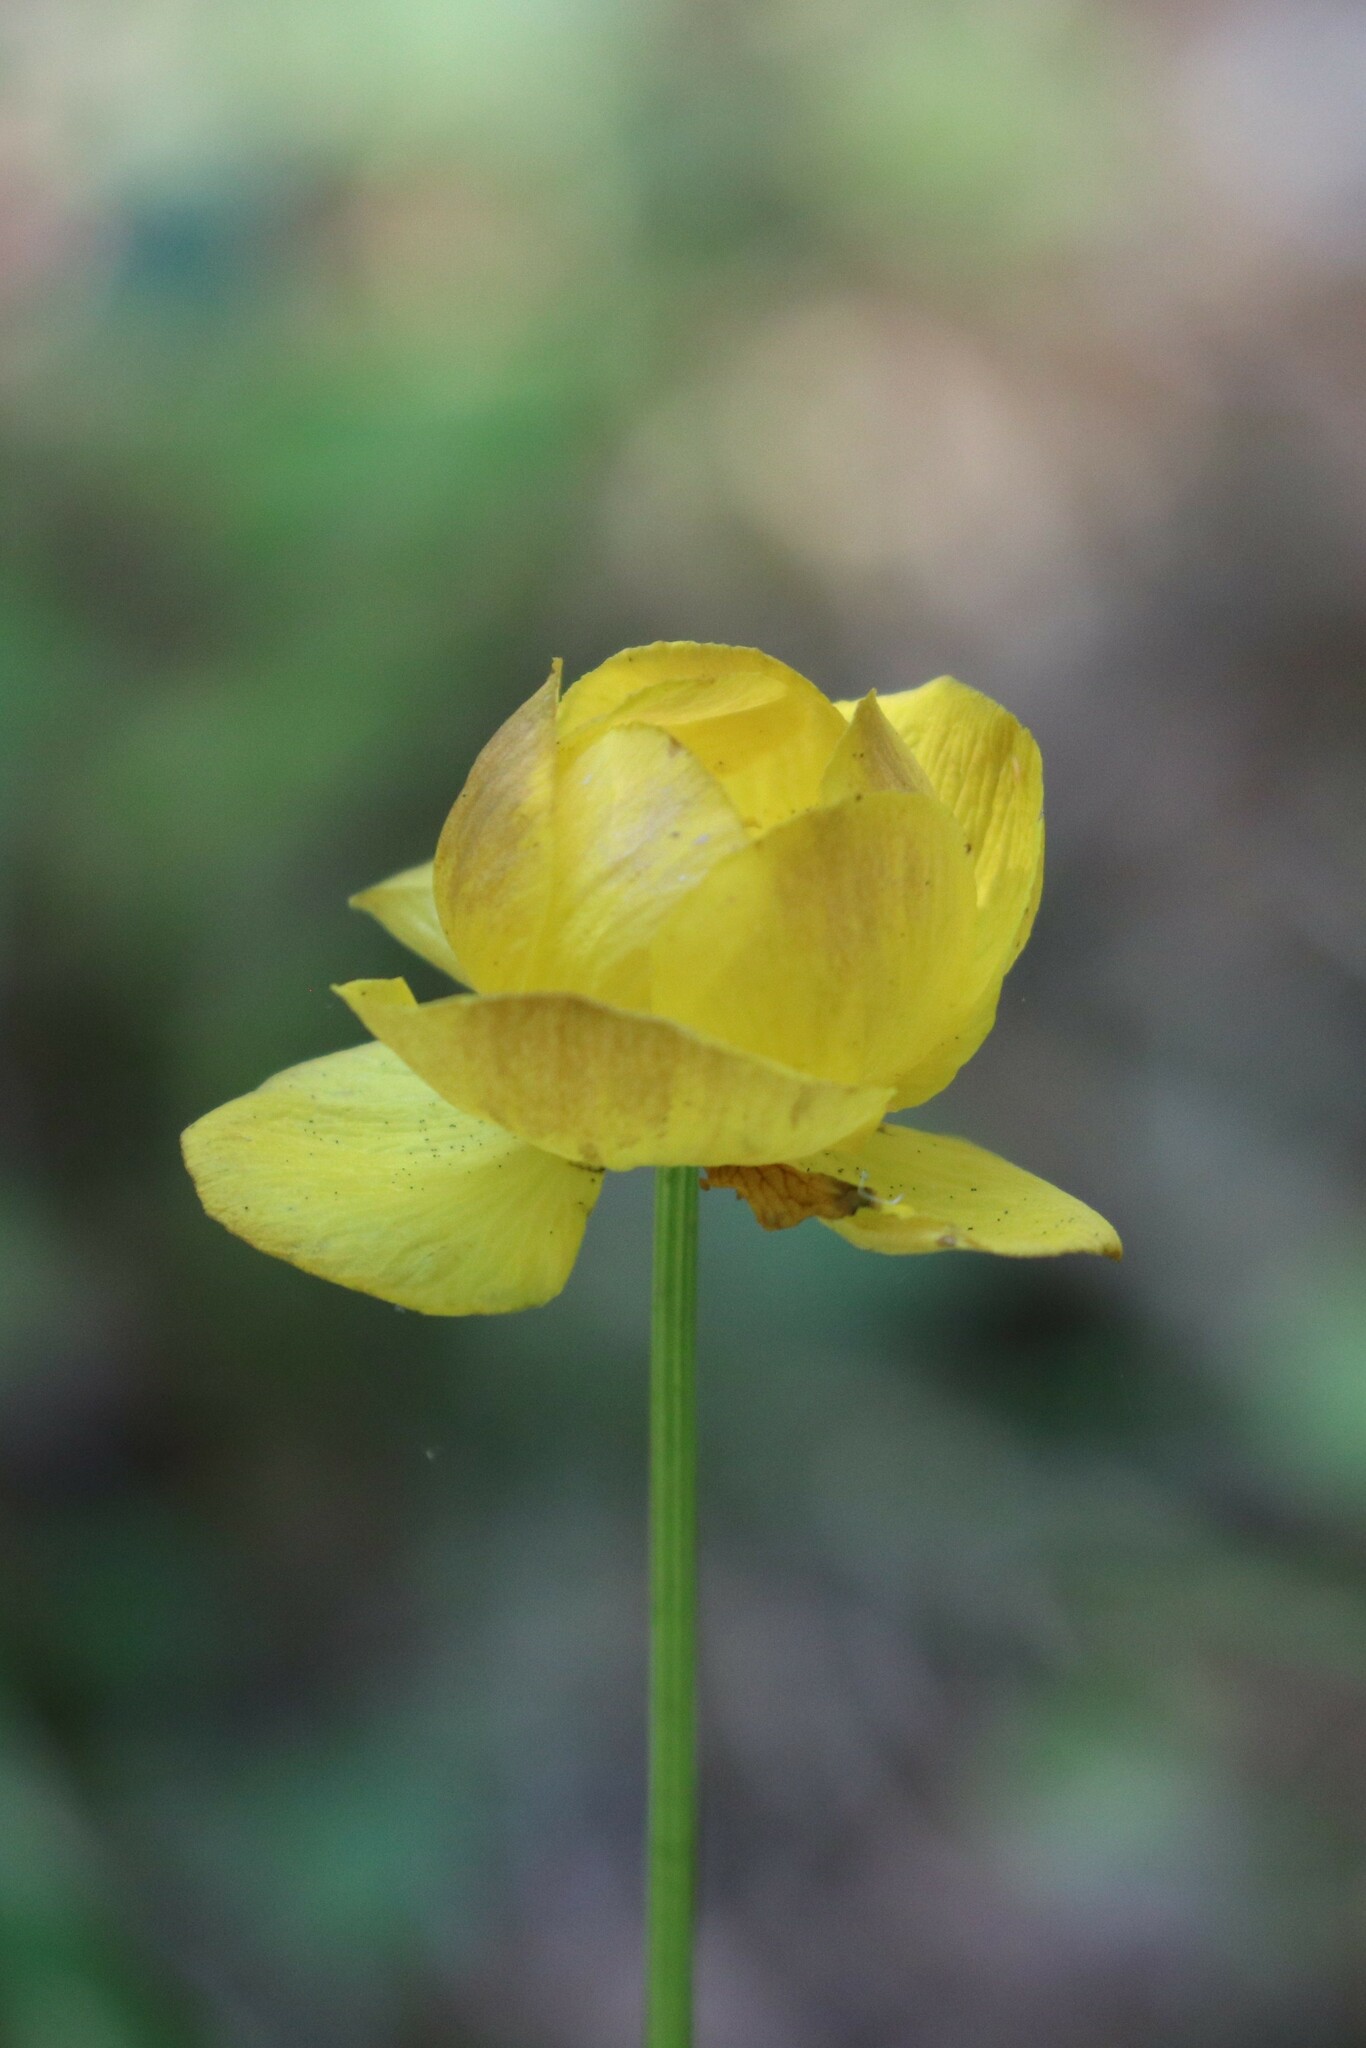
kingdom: Plantae
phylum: Tracheophyta
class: Magnoliopsida
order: Ranunculales
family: Ranunculaceae
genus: Trollius
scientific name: Trollius europaeus
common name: European globeflower
